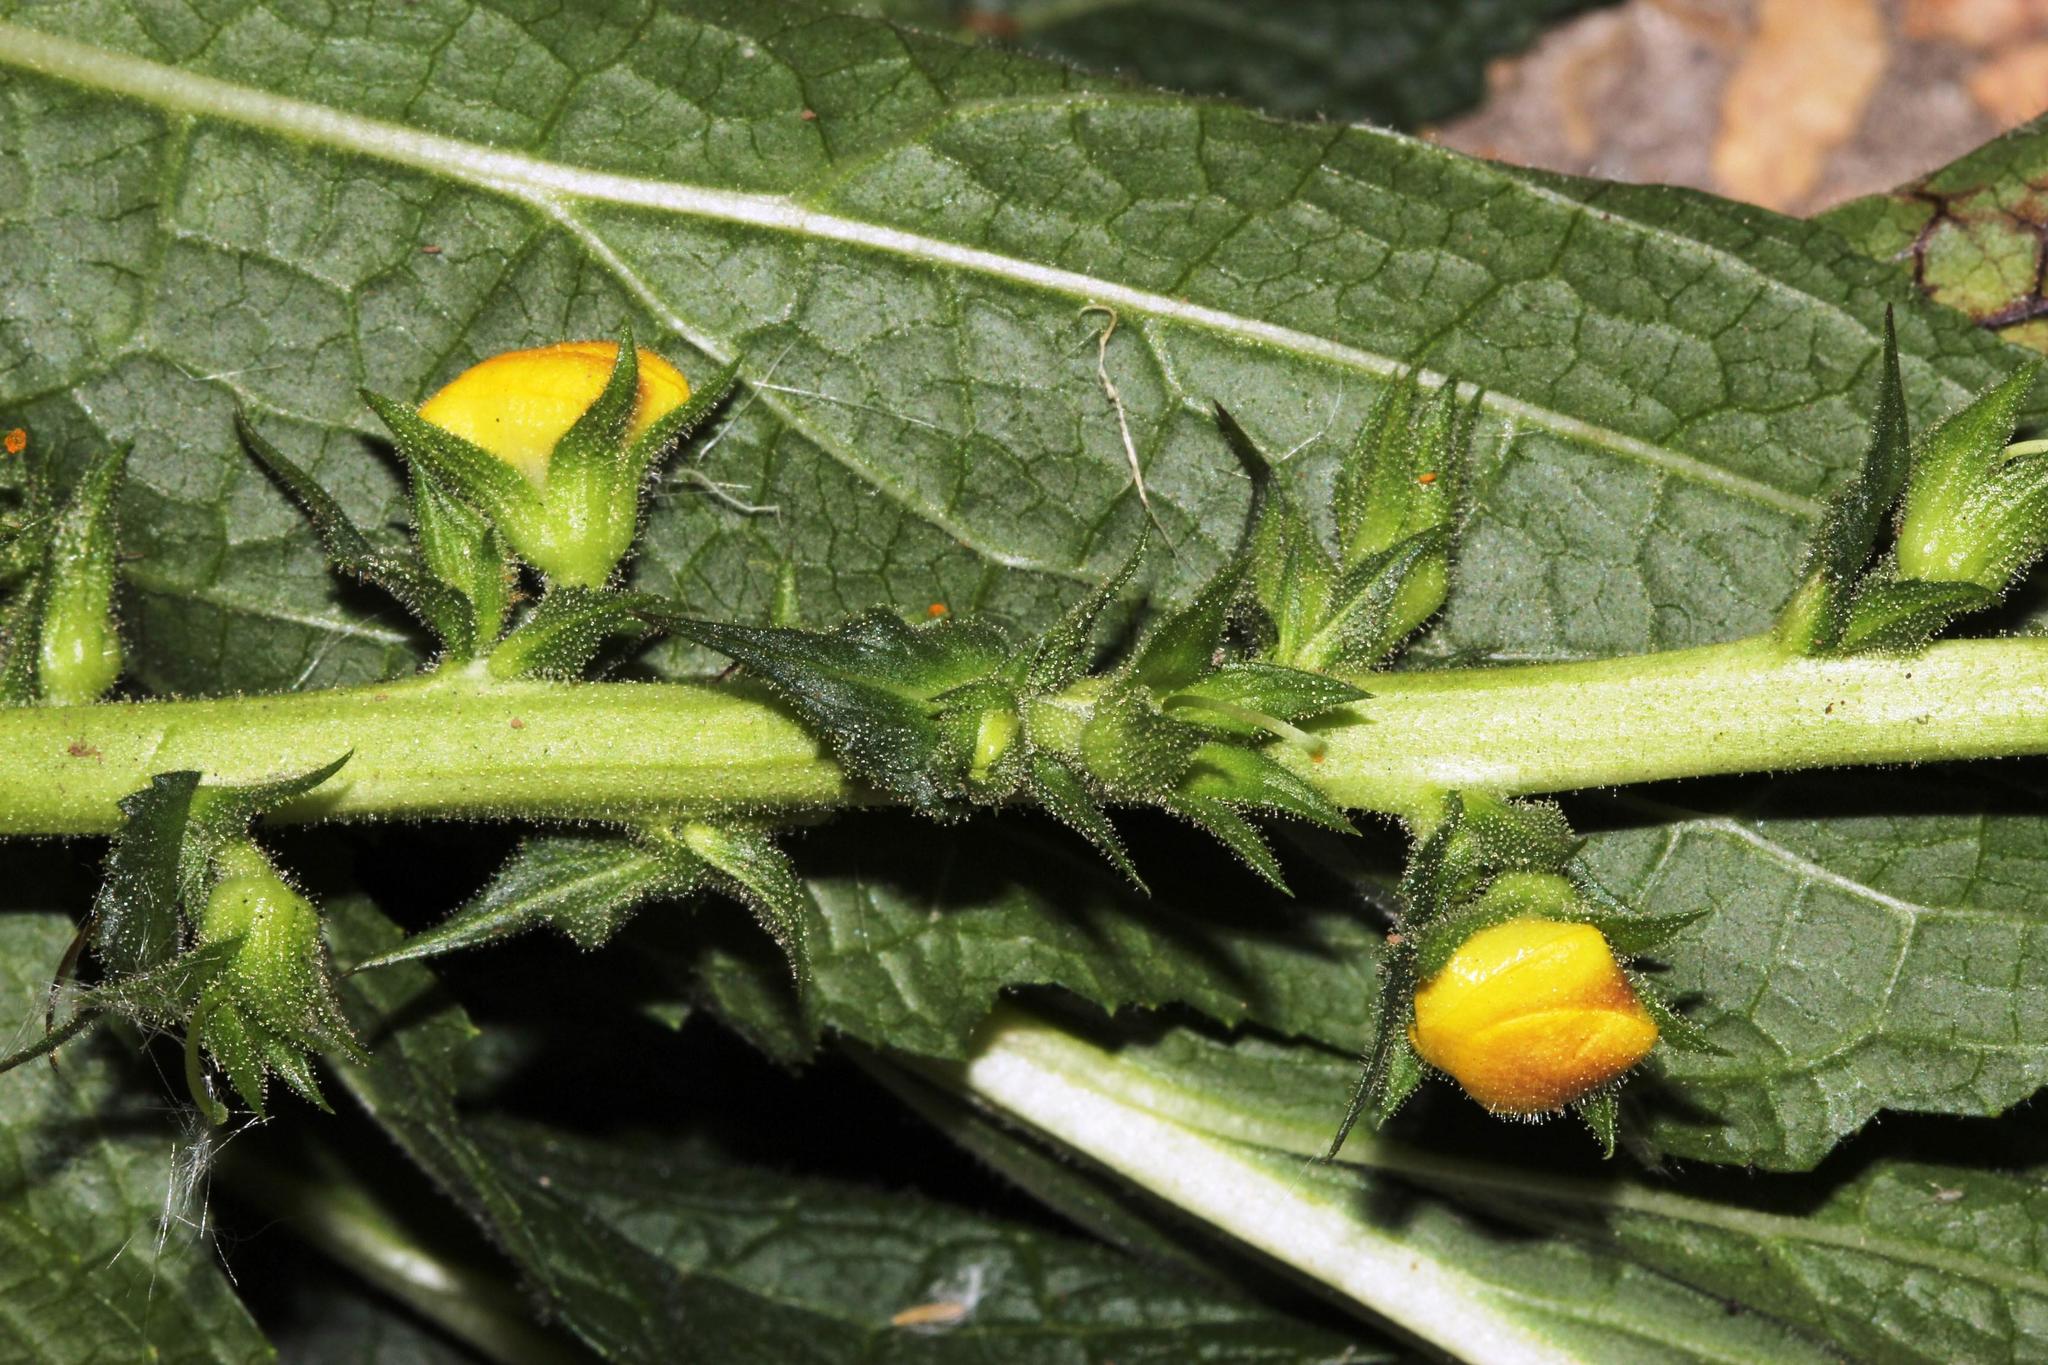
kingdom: Plantae
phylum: Tracheophyta
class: Magnoliopsida
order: Lamiales
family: Scrophulariaceae
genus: Verbascum
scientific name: Verbascum virgatum
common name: Twiggy mullein
